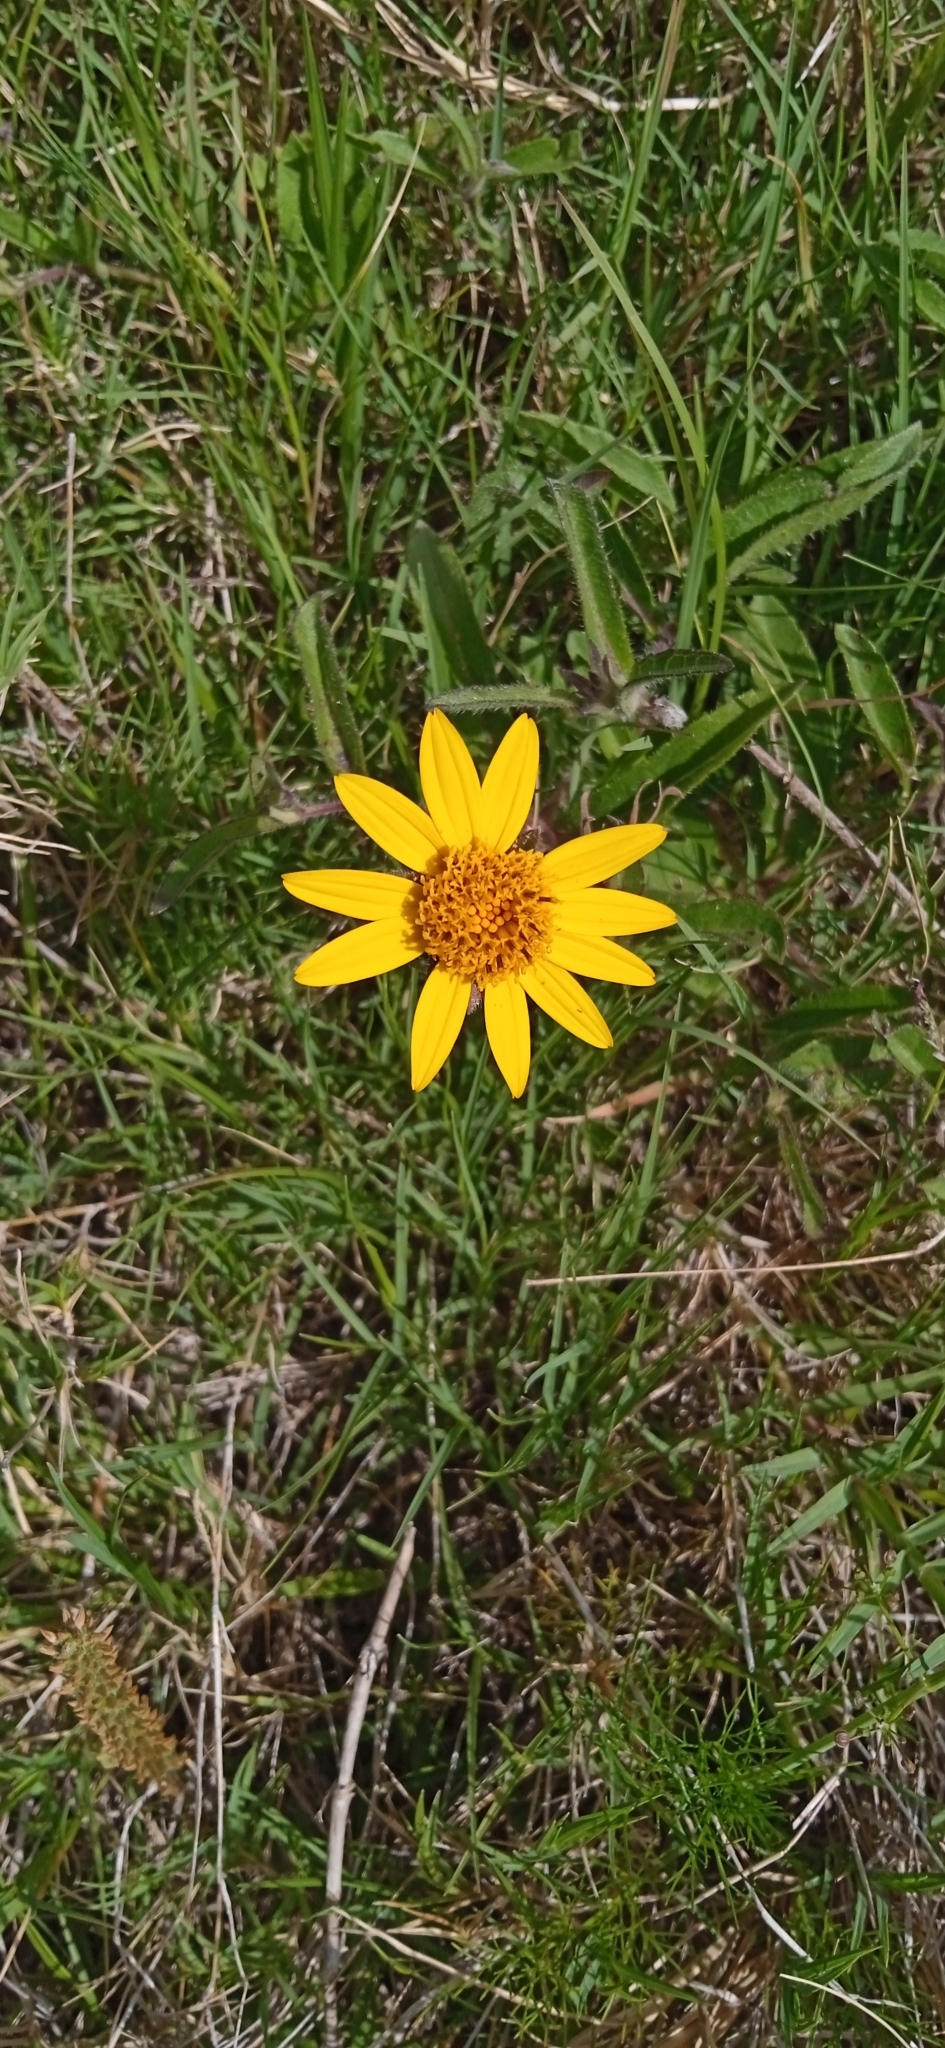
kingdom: Plantae
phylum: Tracheophyta
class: Magnoliopsida
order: Asterales
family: Asteraceae
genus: Wedelia
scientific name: Wedelia montevidensis
